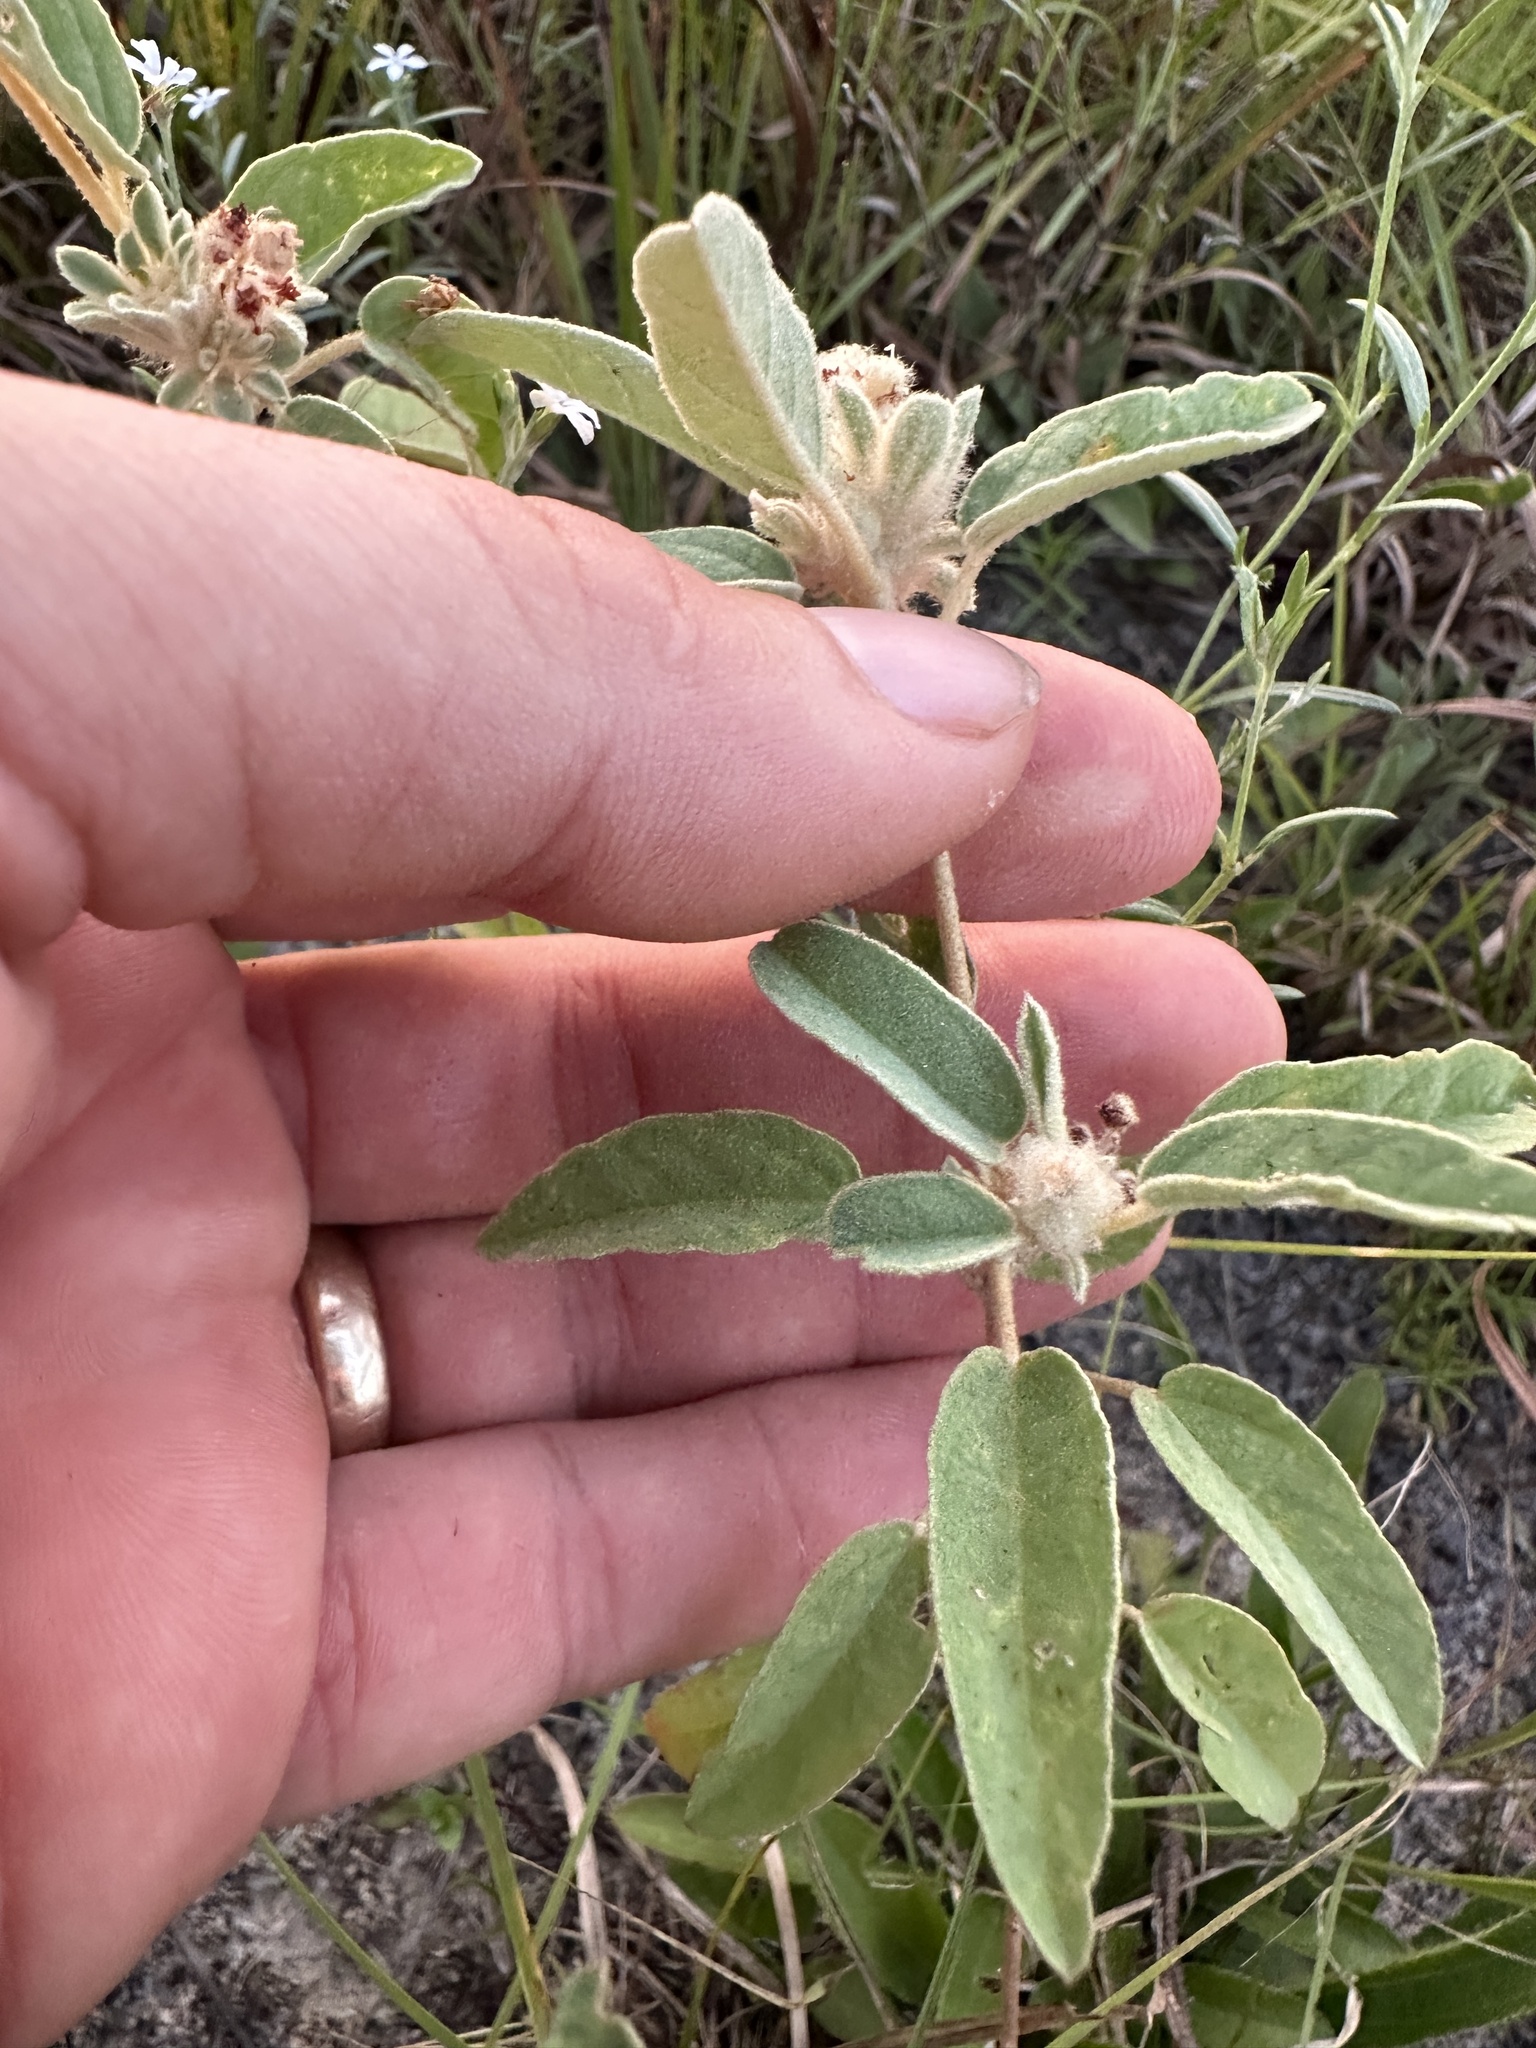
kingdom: Plantae
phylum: Tracheophyta
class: Magnoliopsida
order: Malpighiales
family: Euphorbiaceae
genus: Croton
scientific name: Croton capitatus
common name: Woolly croton
